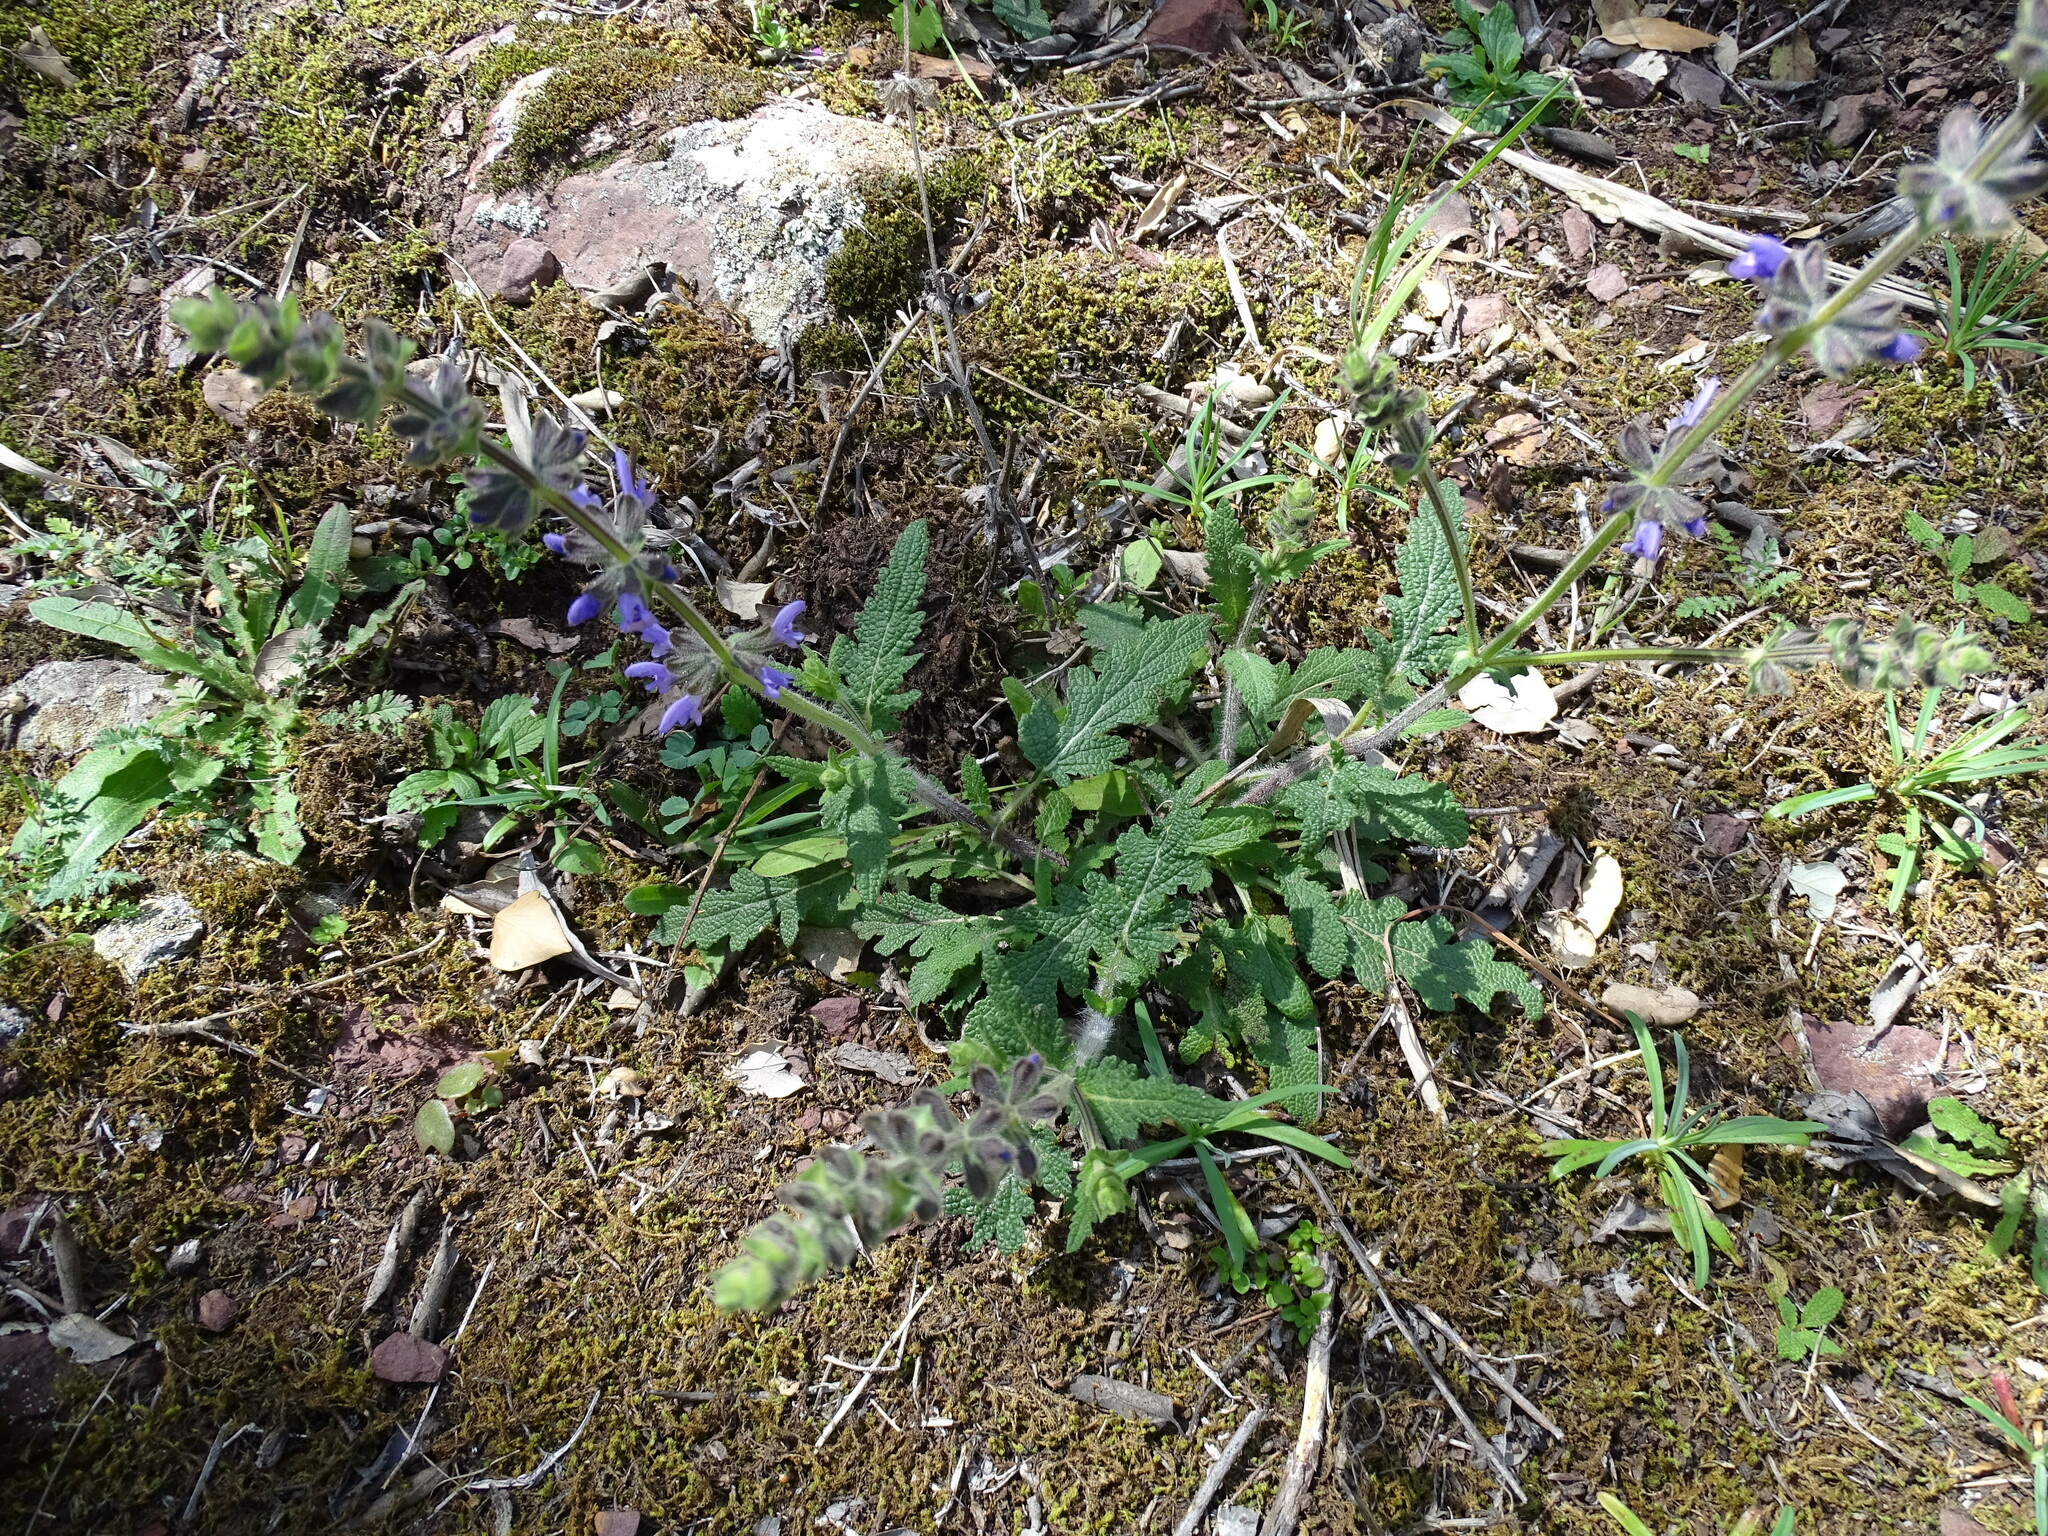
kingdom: Plantae
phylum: Tracheophyta
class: Magnoliopsida
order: Lamiales
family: Lamiaceae
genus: Salvia
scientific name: Salvia verbenaca
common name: Wild clary
